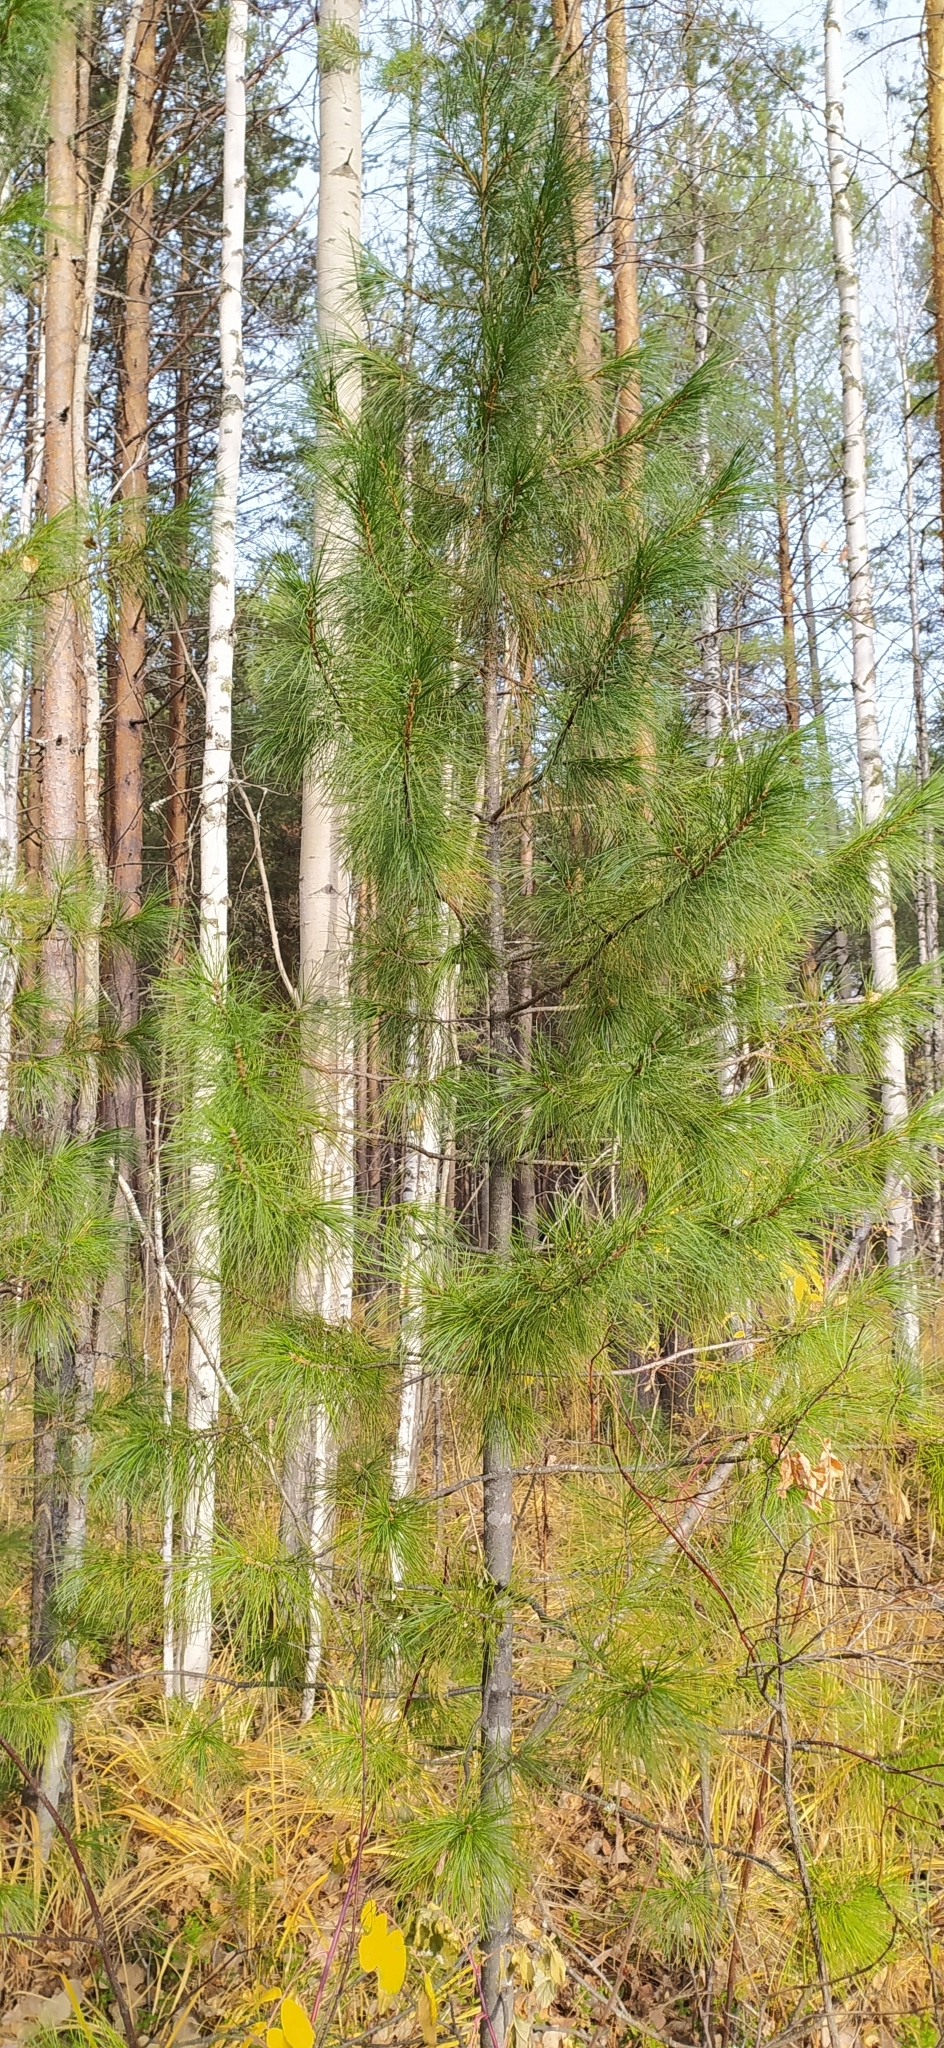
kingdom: Plantae
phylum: Tracheophyta
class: Pinopsida
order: Pinales
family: Pinaceae
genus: Pinus
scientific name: Pinus sibirica
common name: Siberian pine
